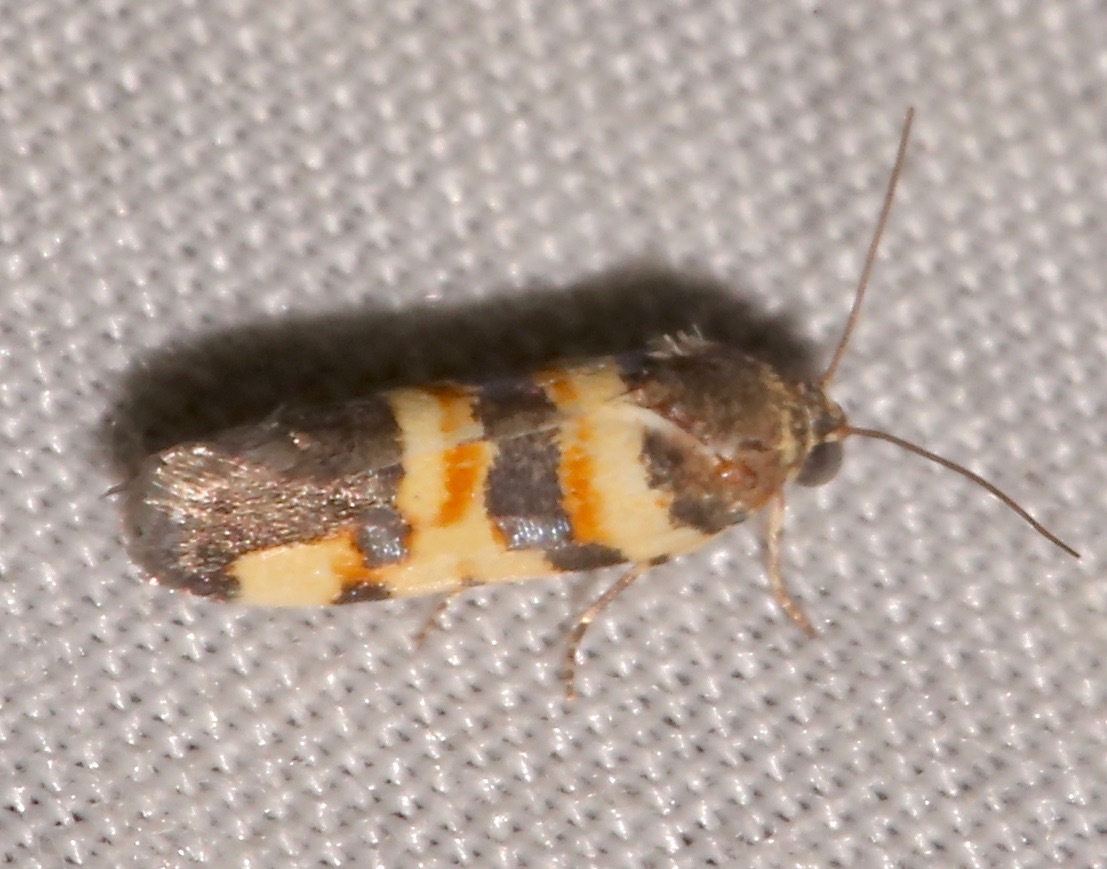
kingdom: Animalia
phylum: Arthropoda
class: Insecta
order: Lepidoptera
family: Noctuidae
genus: Spragueia
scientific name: Spragueia funeralis
